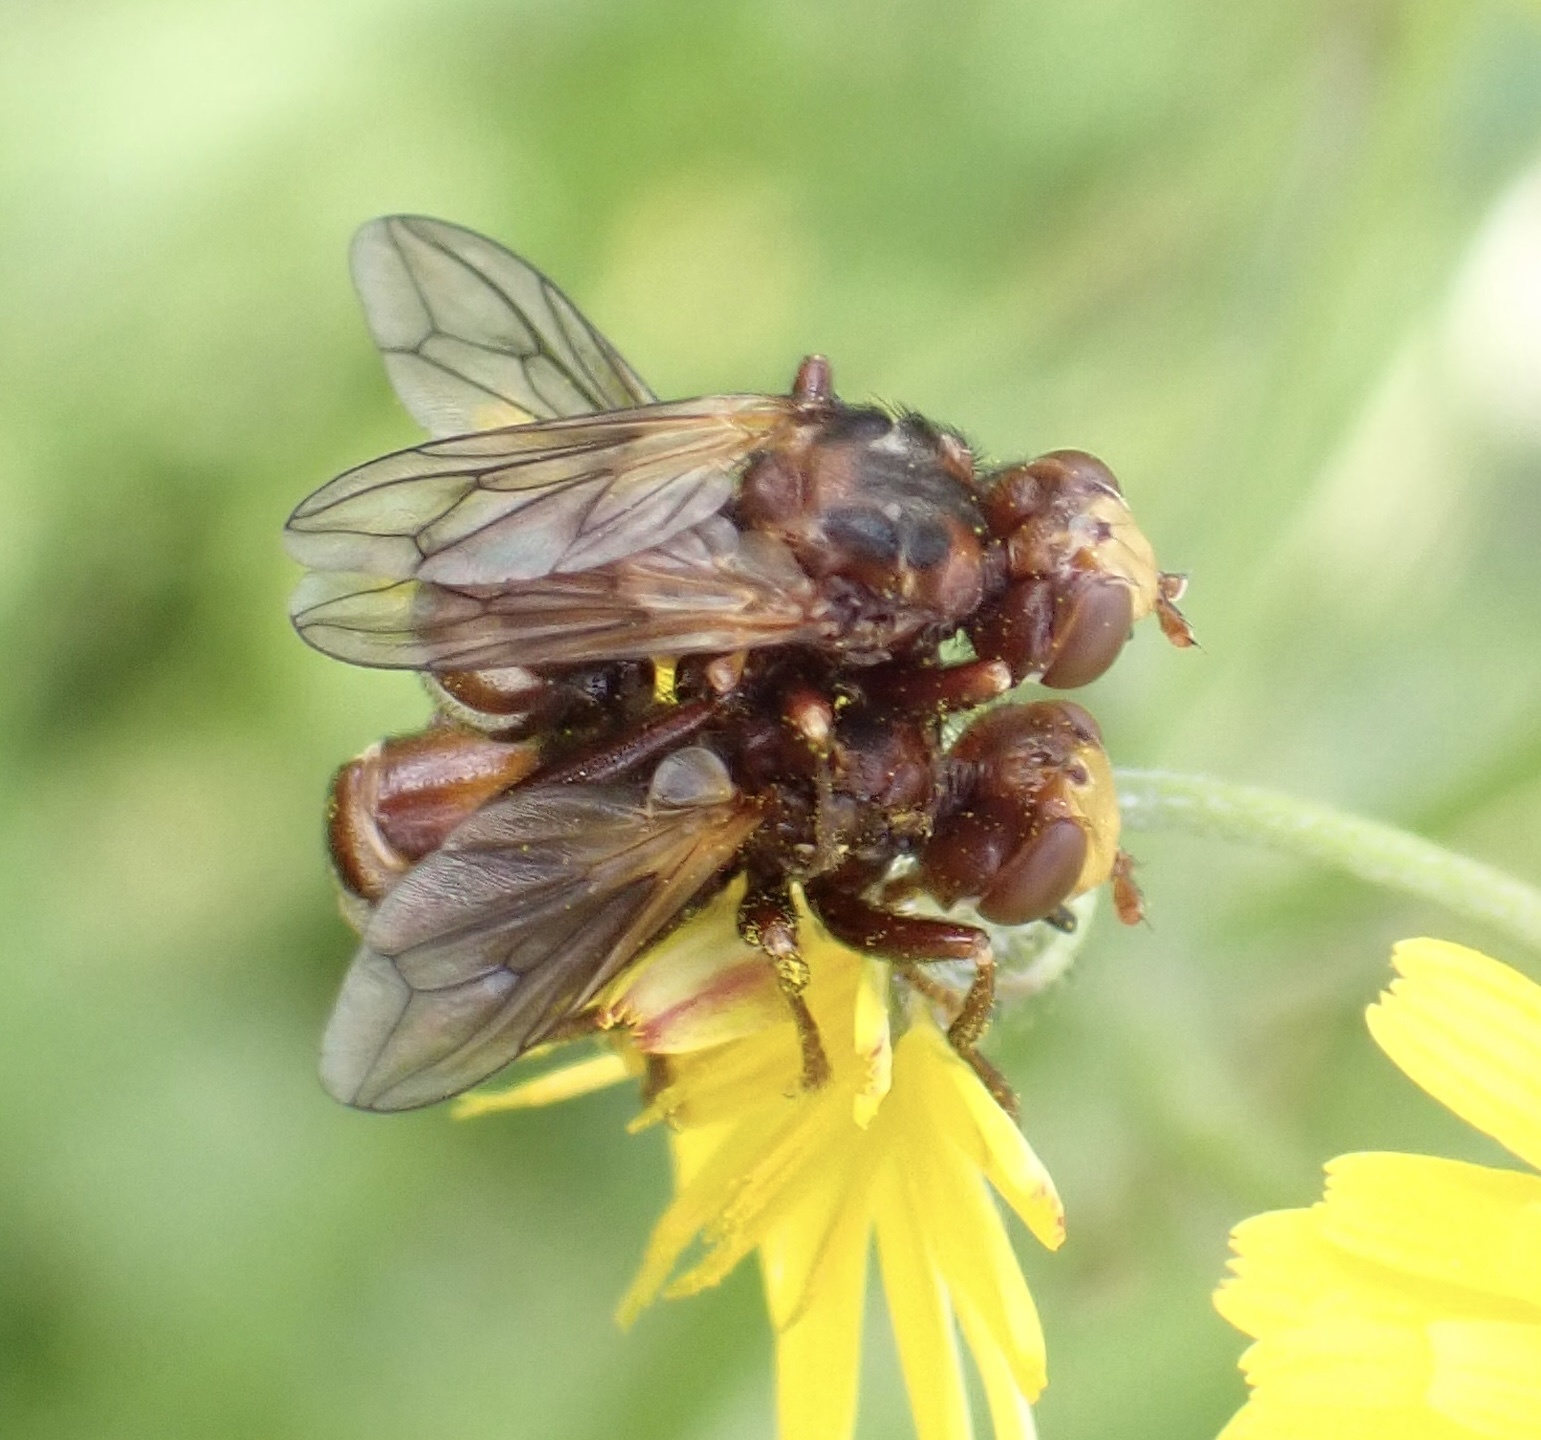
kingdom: Animalia
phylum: Arthropoda
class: Insecta
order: Diptera
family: Conopidae
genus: Sicus
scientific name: Sicus ferrugineus
